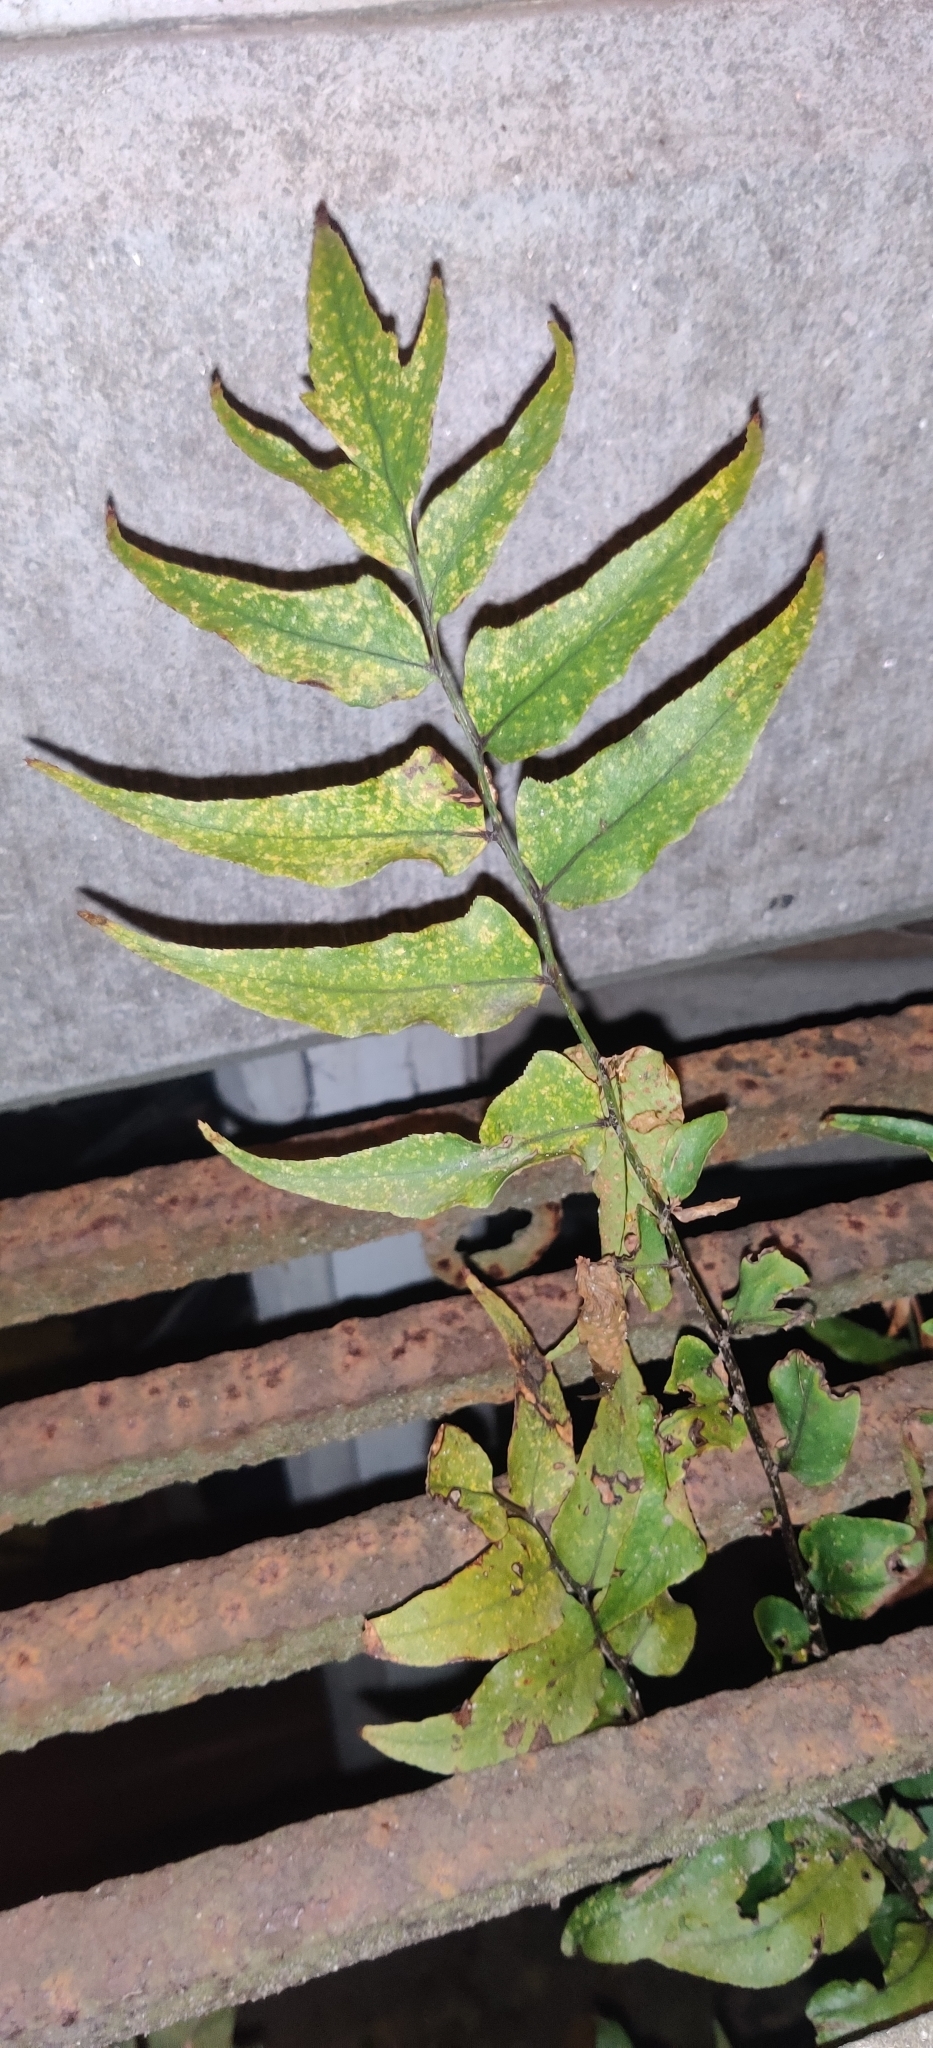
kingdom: Plantae
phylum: Tracheophyta
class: Polypodiopsida
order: Polypodiales
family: Dryopteridaceae
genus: Cyrtomium
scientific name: Cyrtomium fortunei
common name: Asian netvein hollyfern
